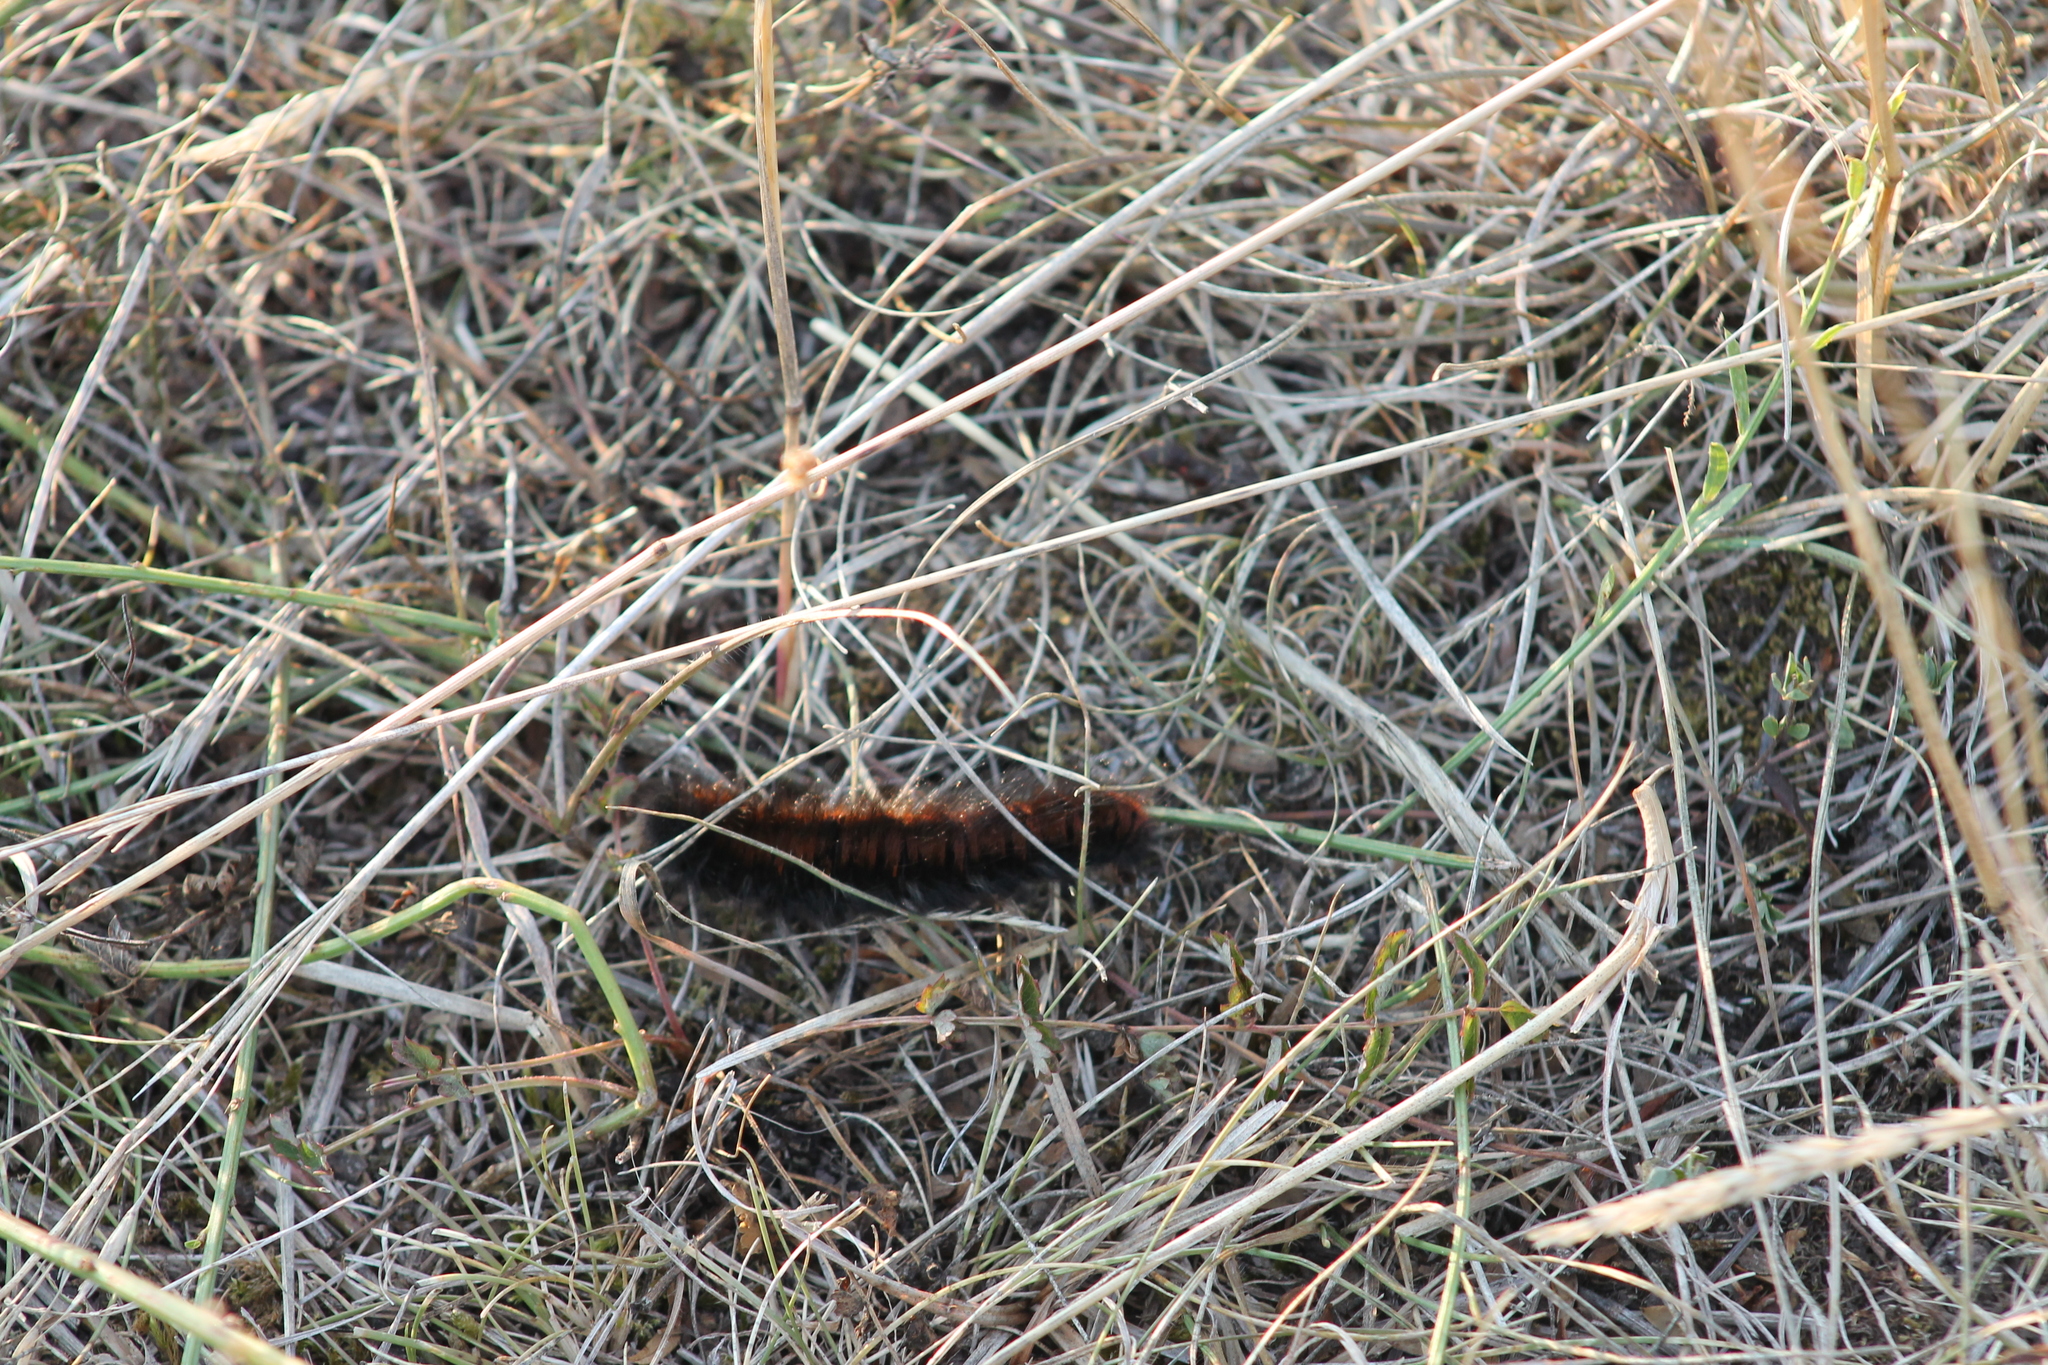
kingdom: Animalia
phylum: Arthropoda
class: Insecta
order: Lepidoptera
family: Lasiocampidae
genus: Macrothylacia
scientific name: Macrothylacia rubi
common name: Fox moth
